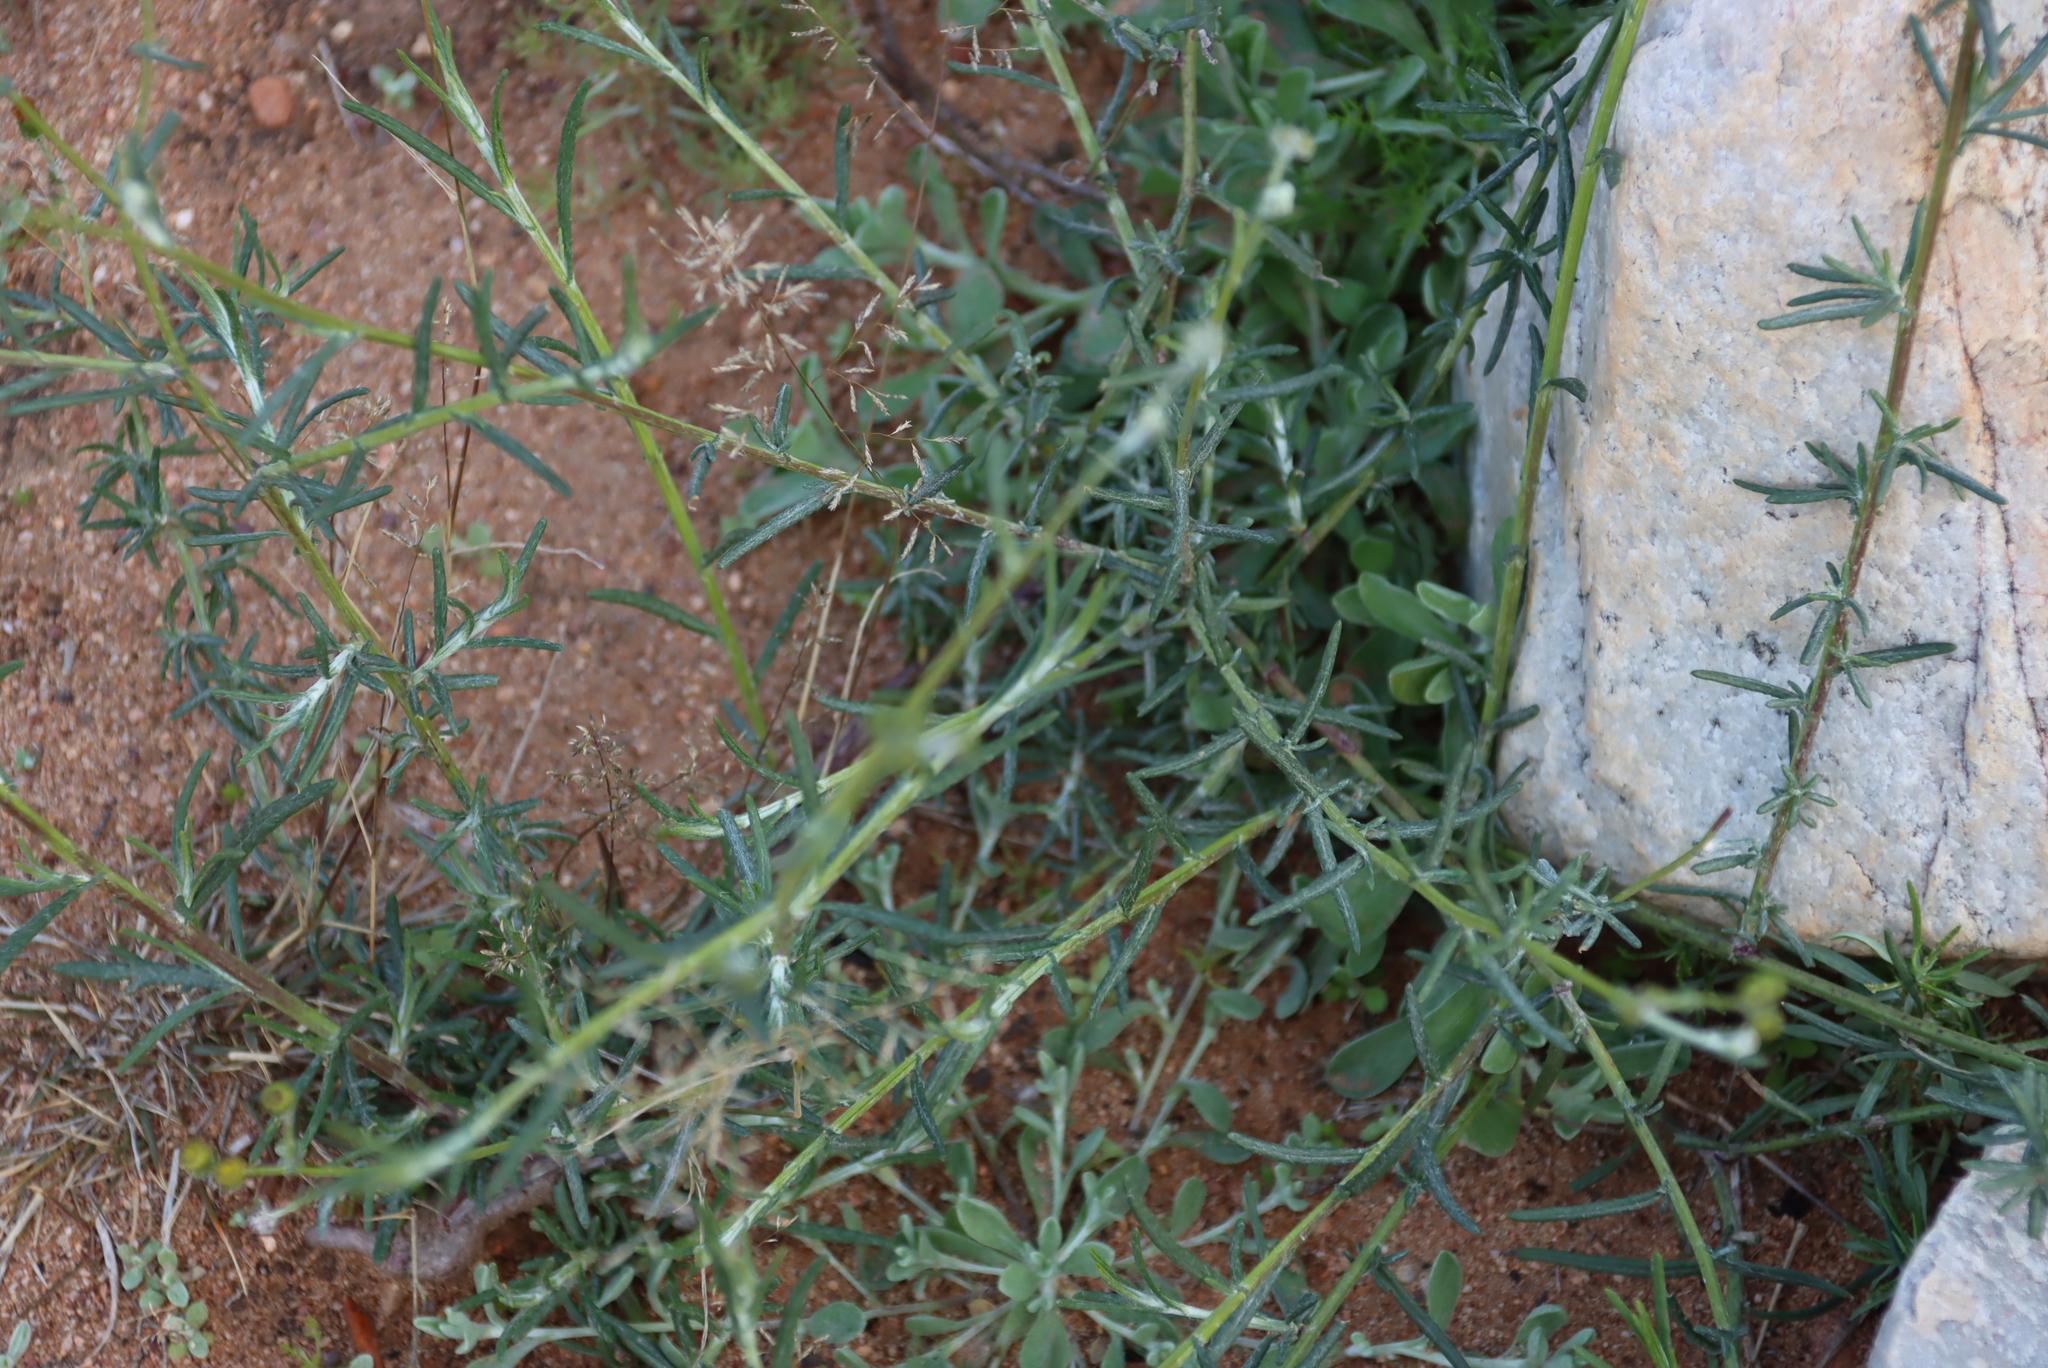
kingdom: Plantae
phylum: Tracheophyta
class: Magnoliopsida
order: Asterales
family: Asteraceae
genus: Senecio
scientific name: Senecio niveus
